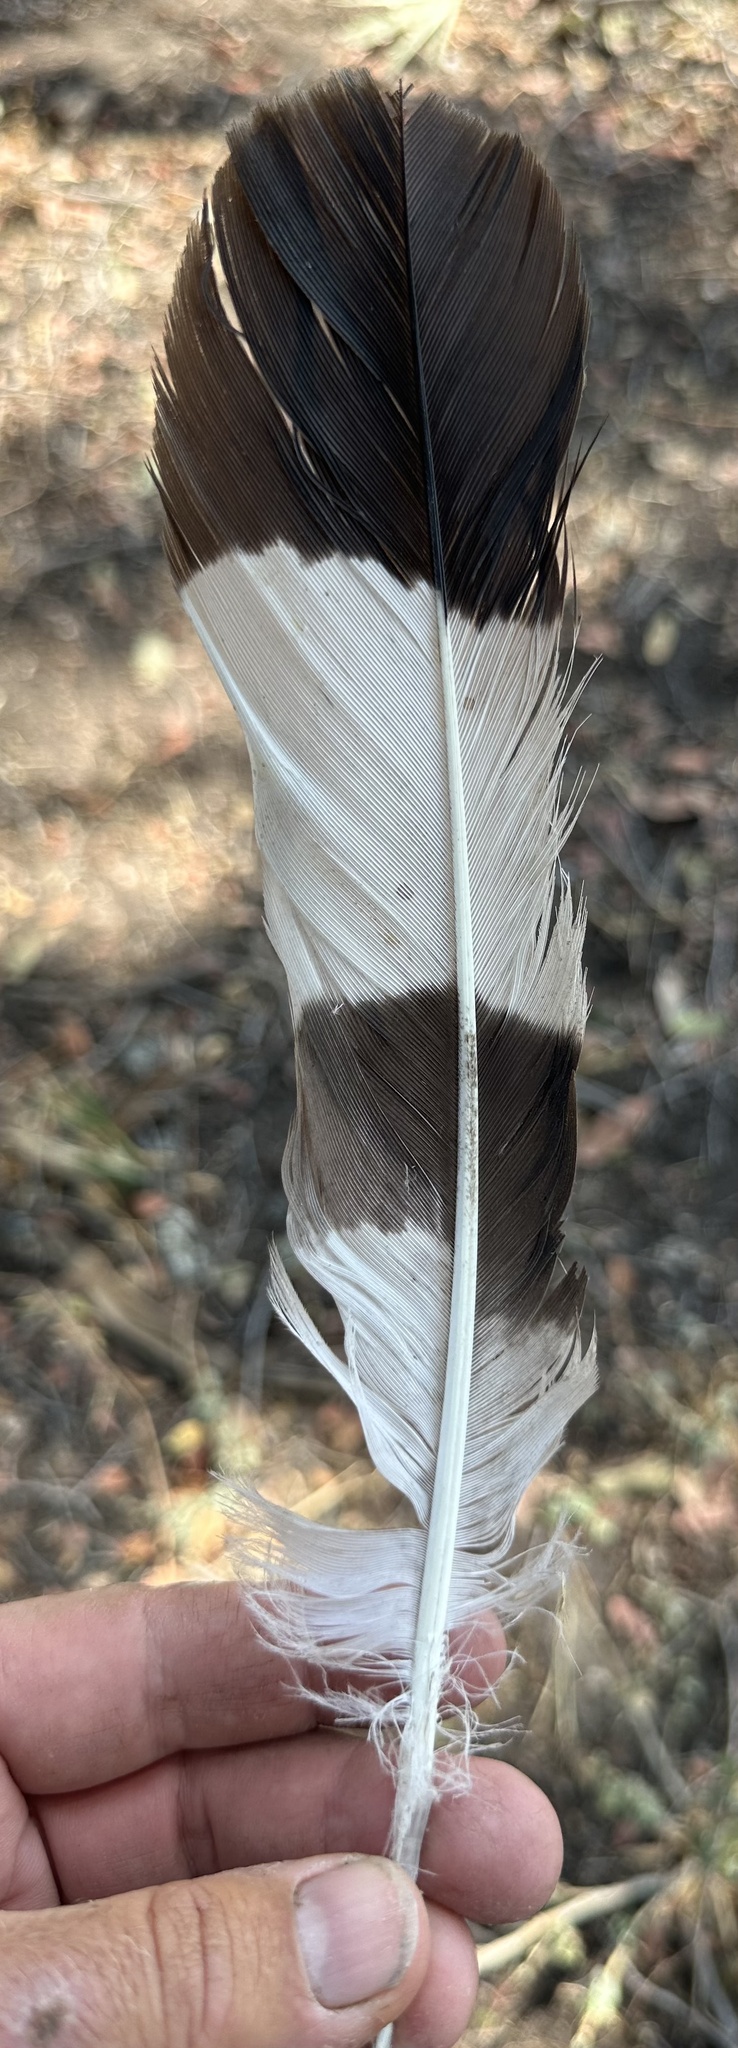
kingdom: Animalia
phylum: Chordata
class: Aves
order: Accipitriformes
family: Accipitridae
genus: Circaetus
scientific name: Circaetus cinerascens
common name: Western banded snake eagle
